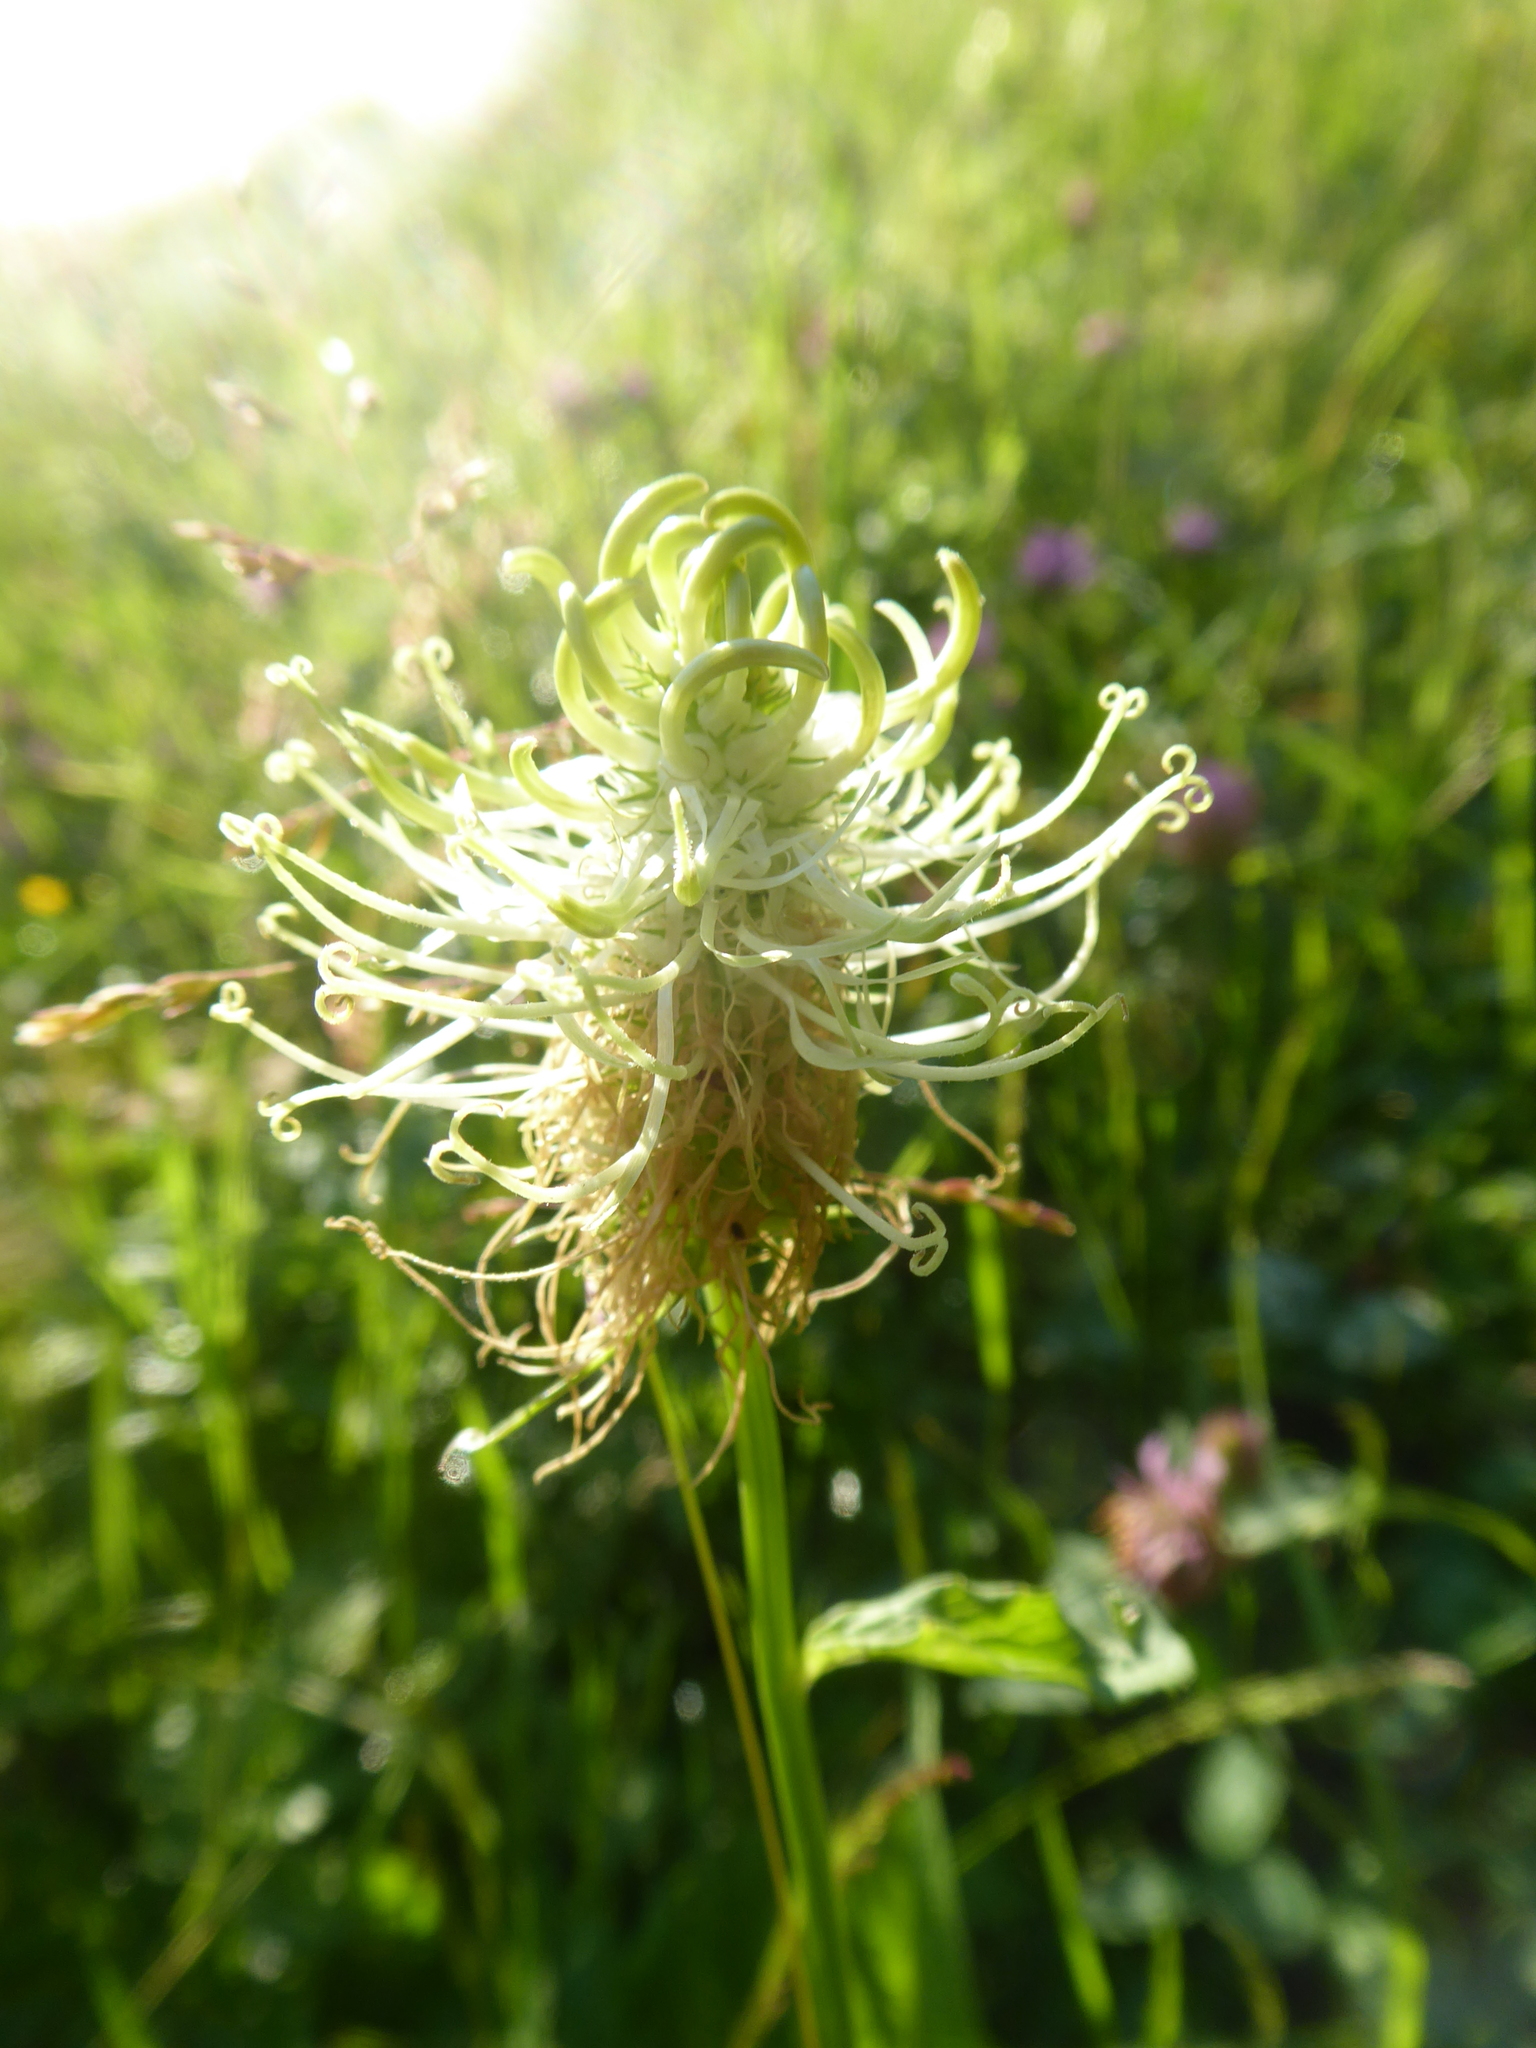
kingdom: Plantae
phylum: Tracheophyta
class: Magnoliopsida
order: Asterales
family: Campanulaceae
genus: Phyteuma
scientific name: Phyteuma spicatum
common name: Spiked rampion
